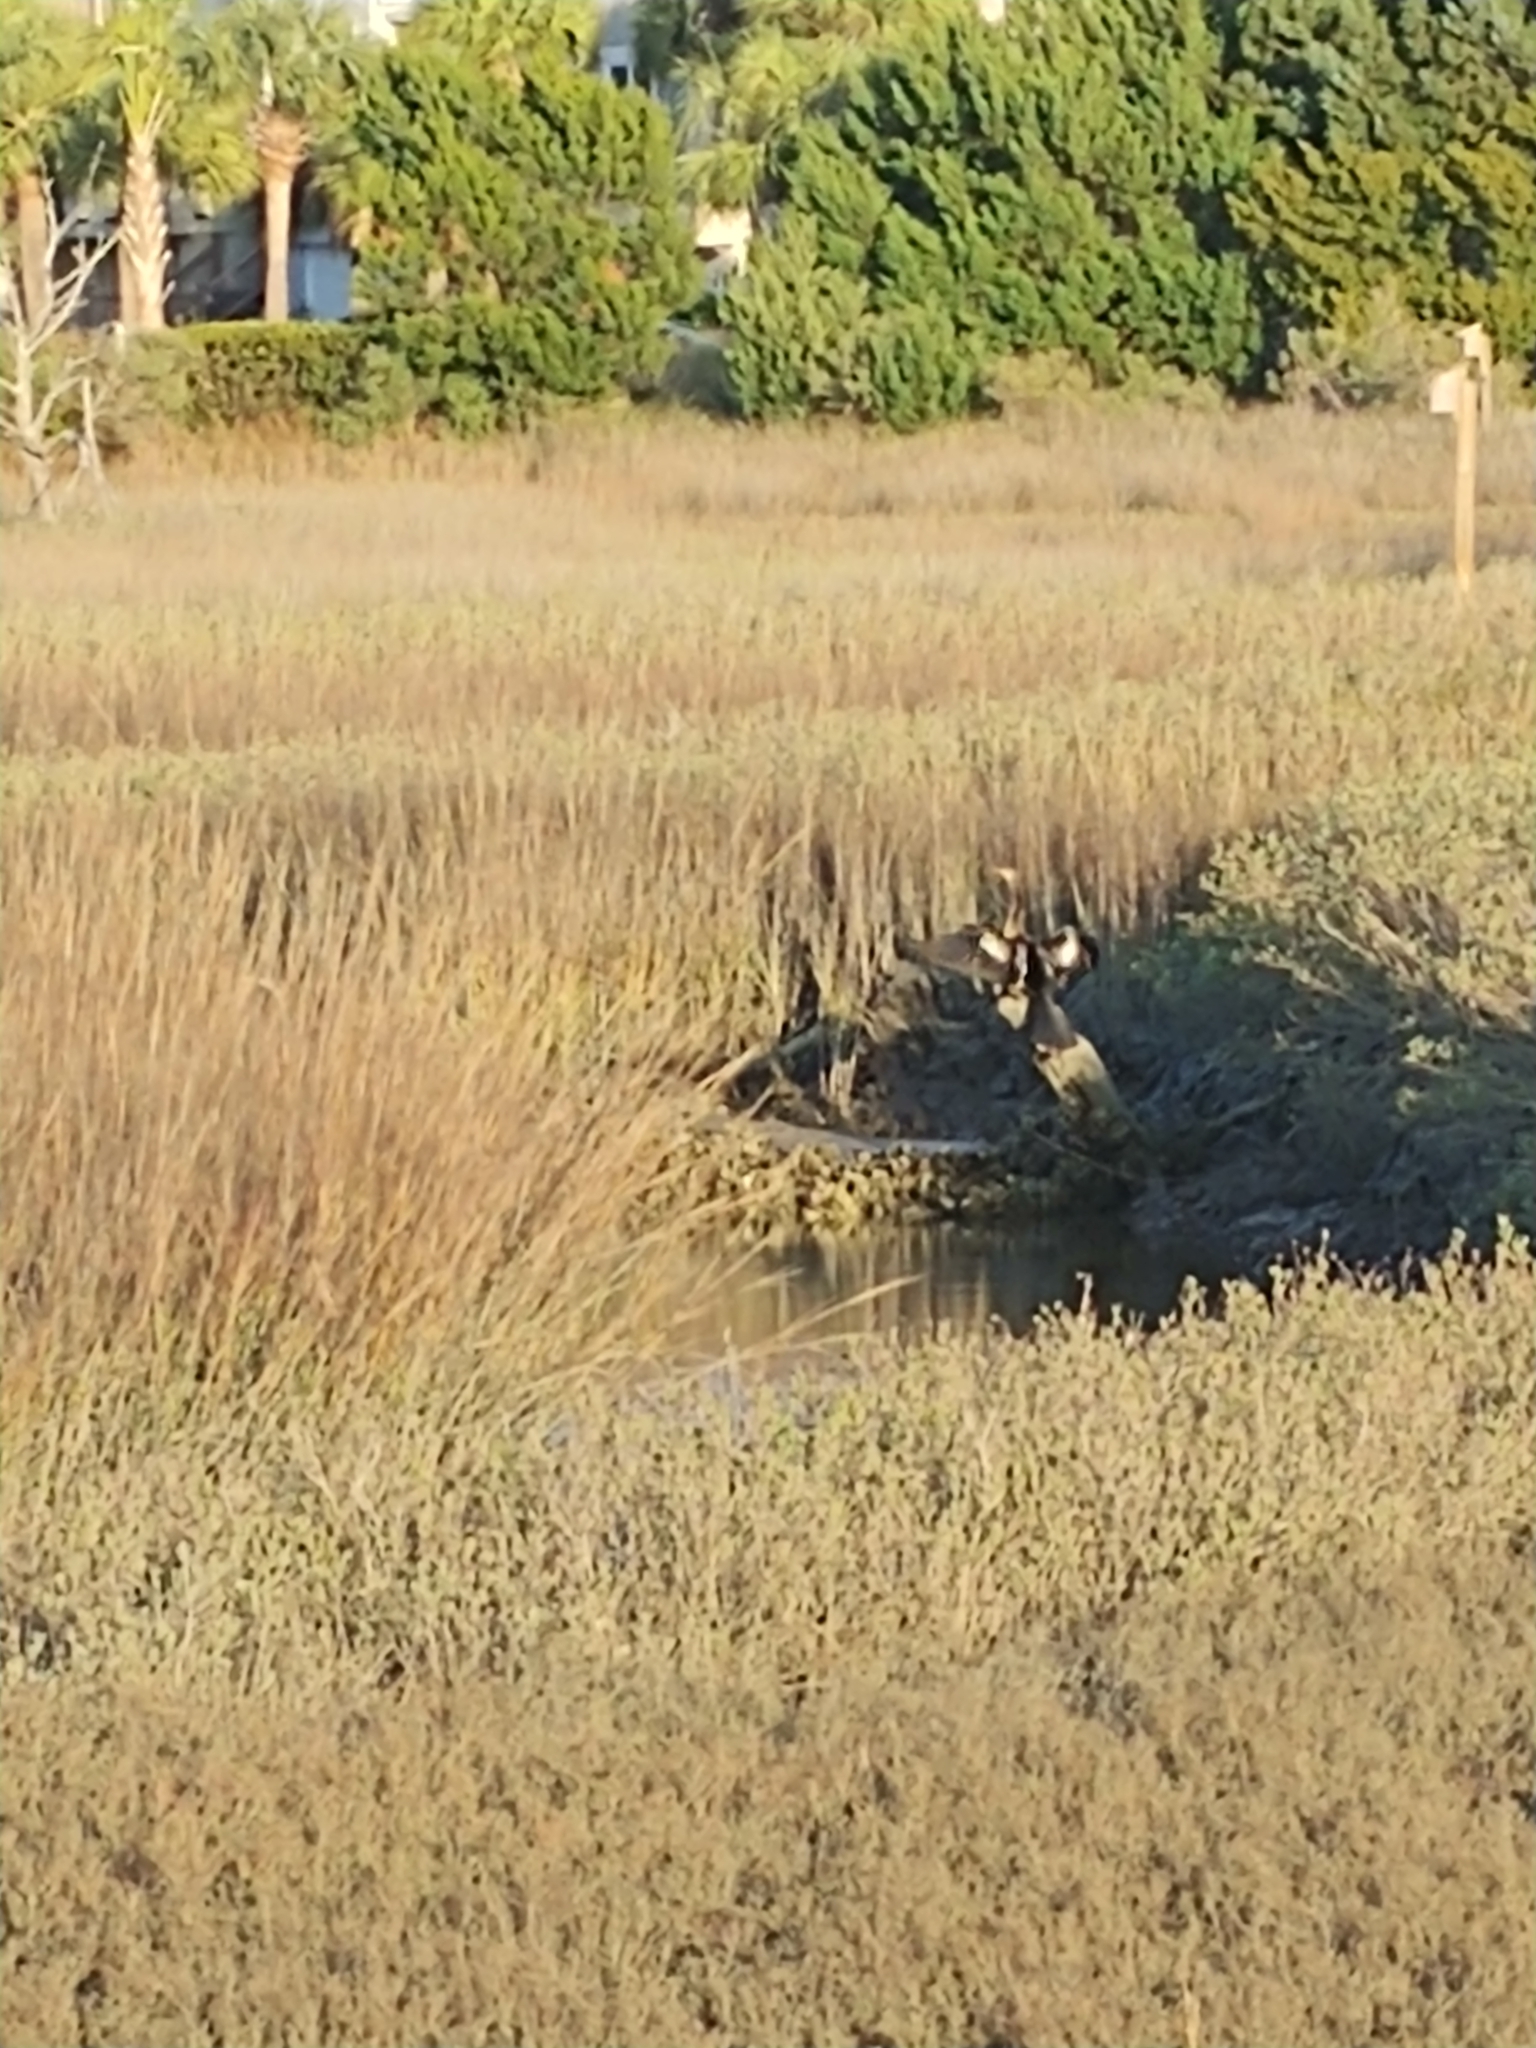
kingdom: Animalia
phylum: Chordata
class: Aves
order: Suliformes
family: Anhingidae
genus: Anhinga
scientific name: Anhinga anhinga
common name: Anhinga
